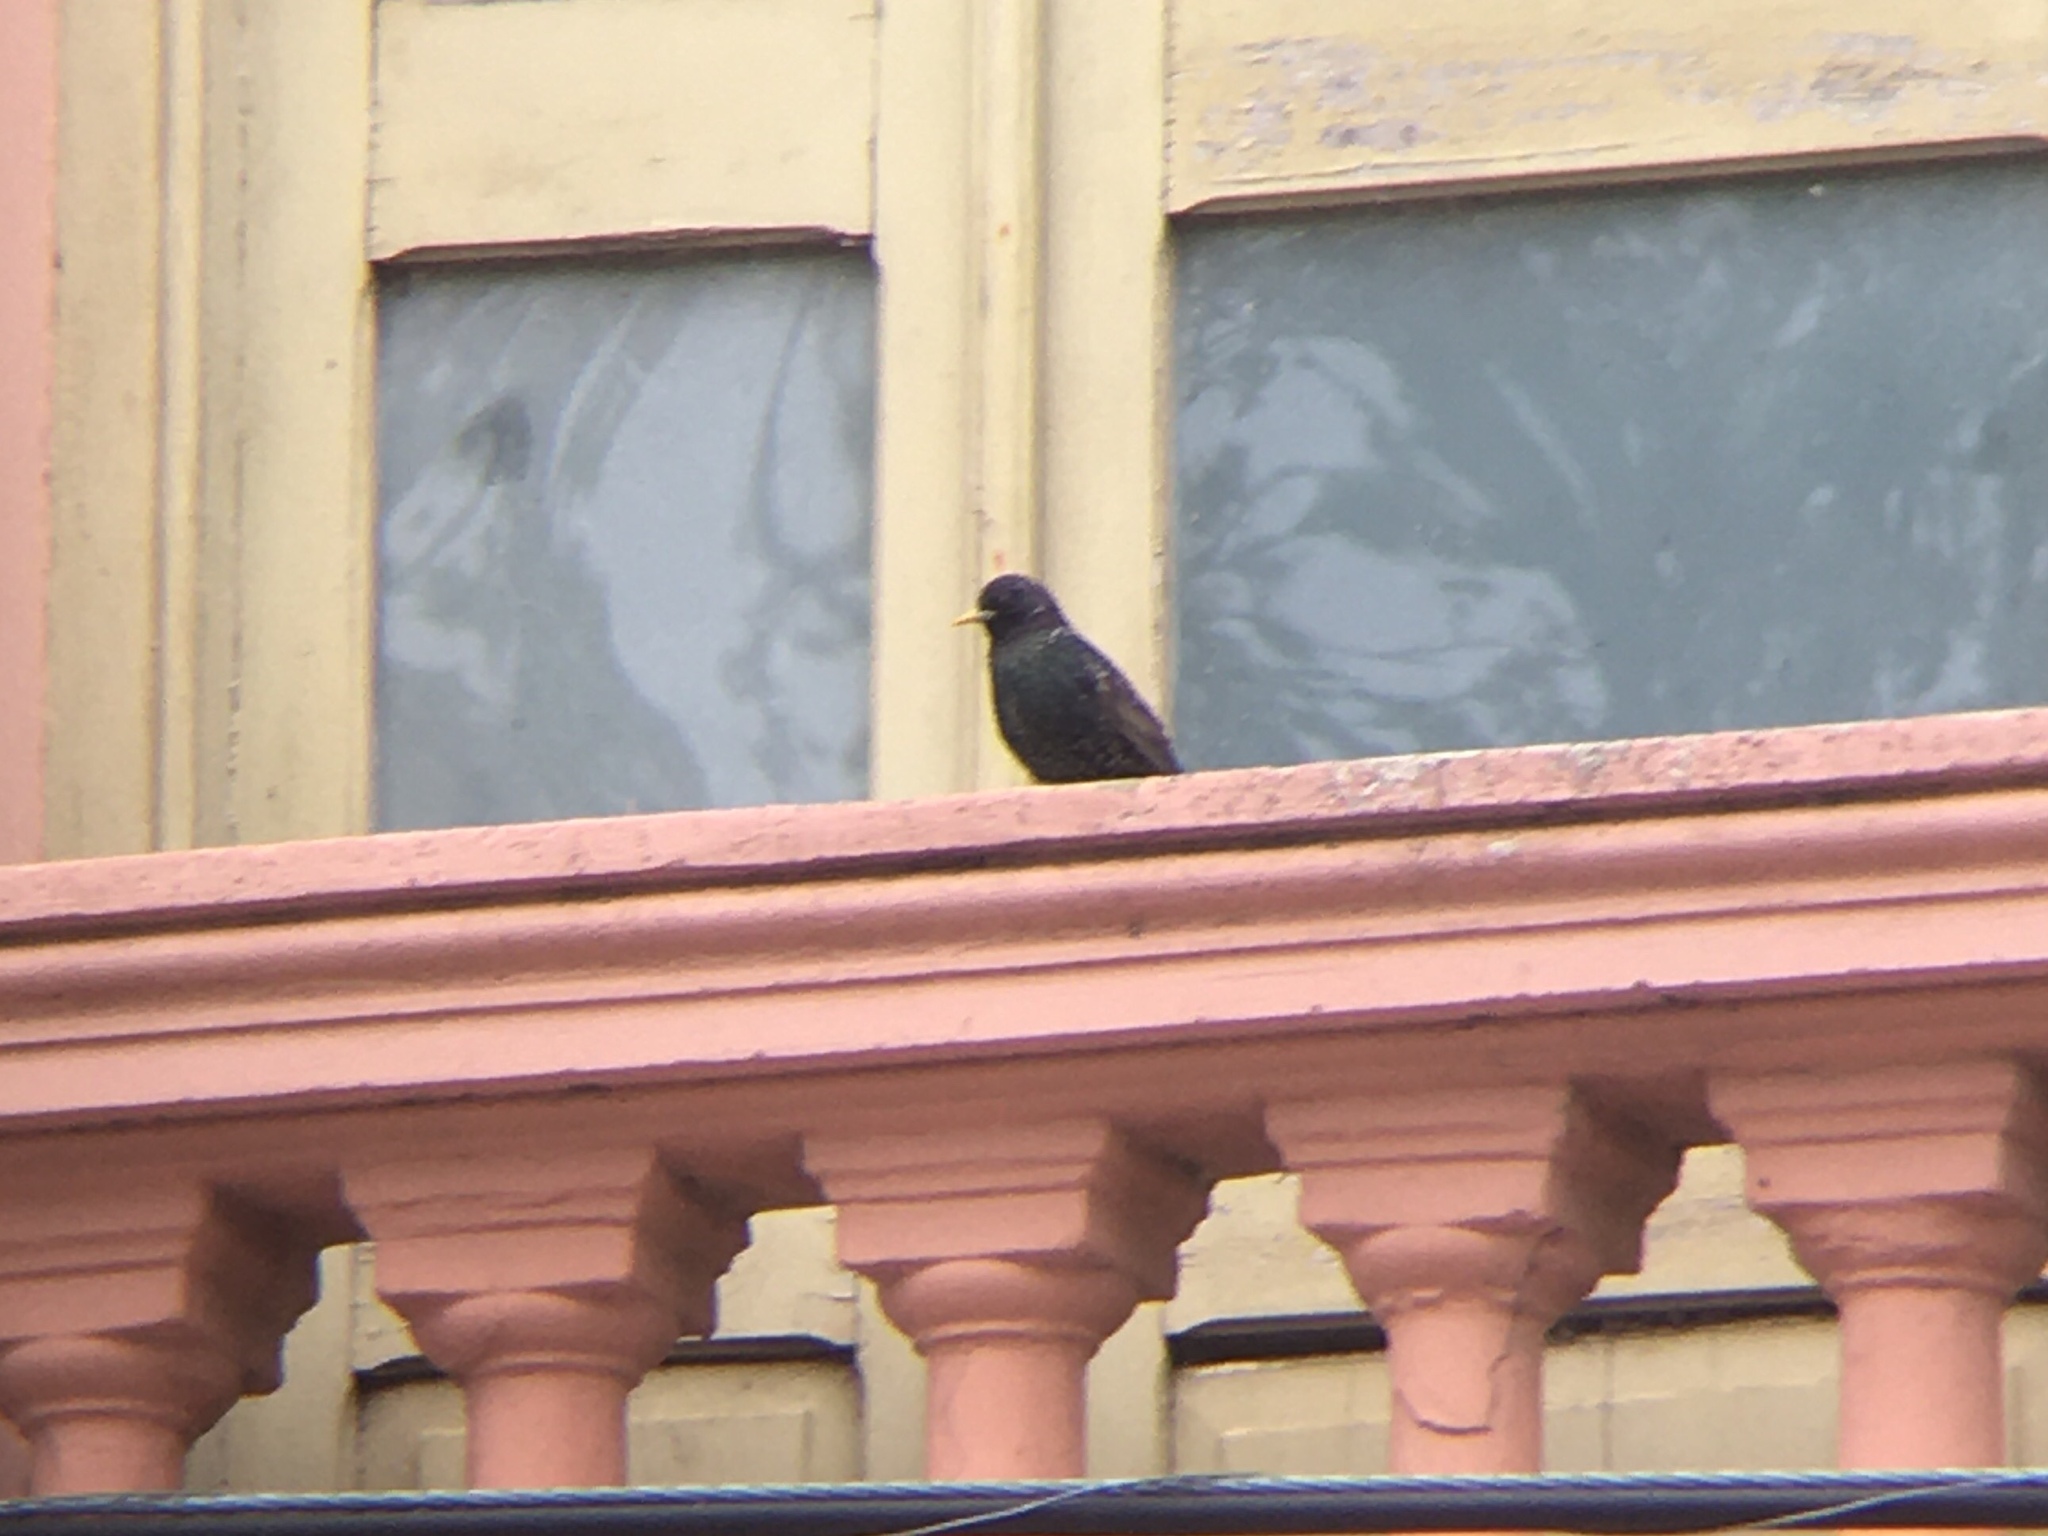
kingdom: Animalia
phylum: Chordata
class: Aves
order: Passeriformes
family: Sturnidae
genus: Sturnus
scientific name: Sturnus vulgaris
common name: Common starling
